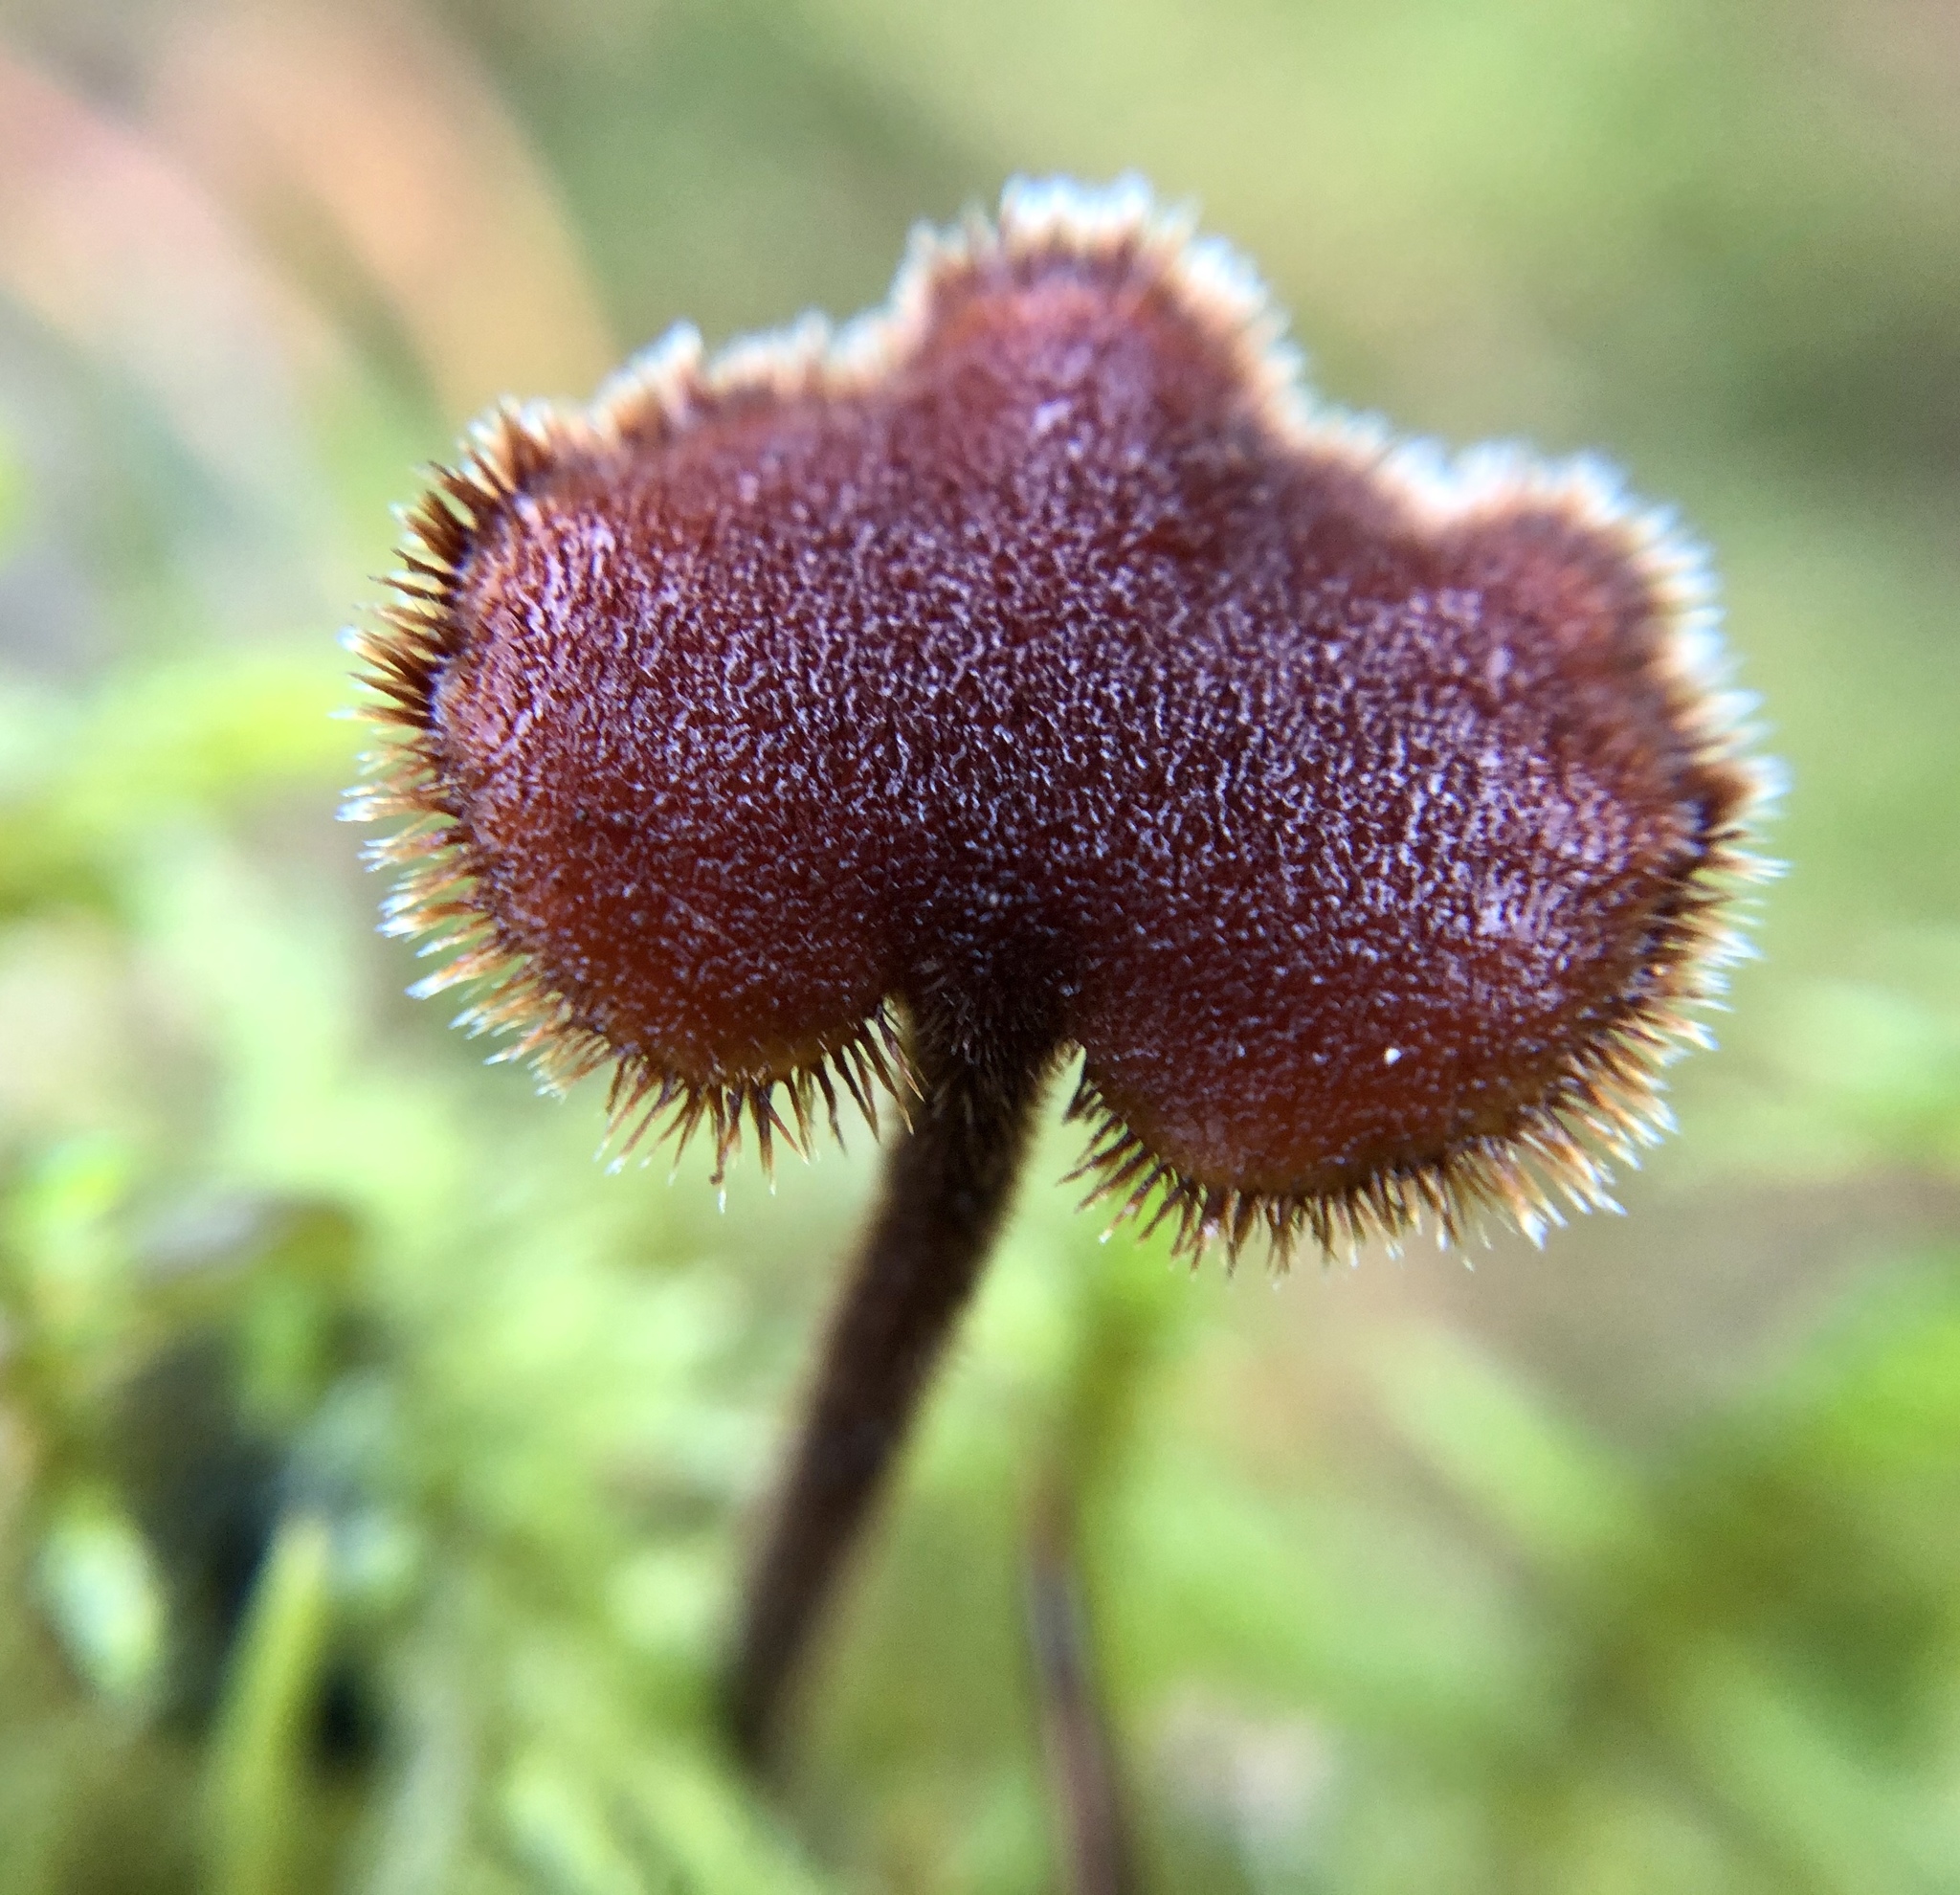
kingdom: Fungi
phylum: Basidiomycota
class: Agaricomycetes
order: Russulales
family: Auriscalpiaceae
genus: Auriscalpium
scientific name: Auriscalpium vulgare
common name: Earpick fungus
